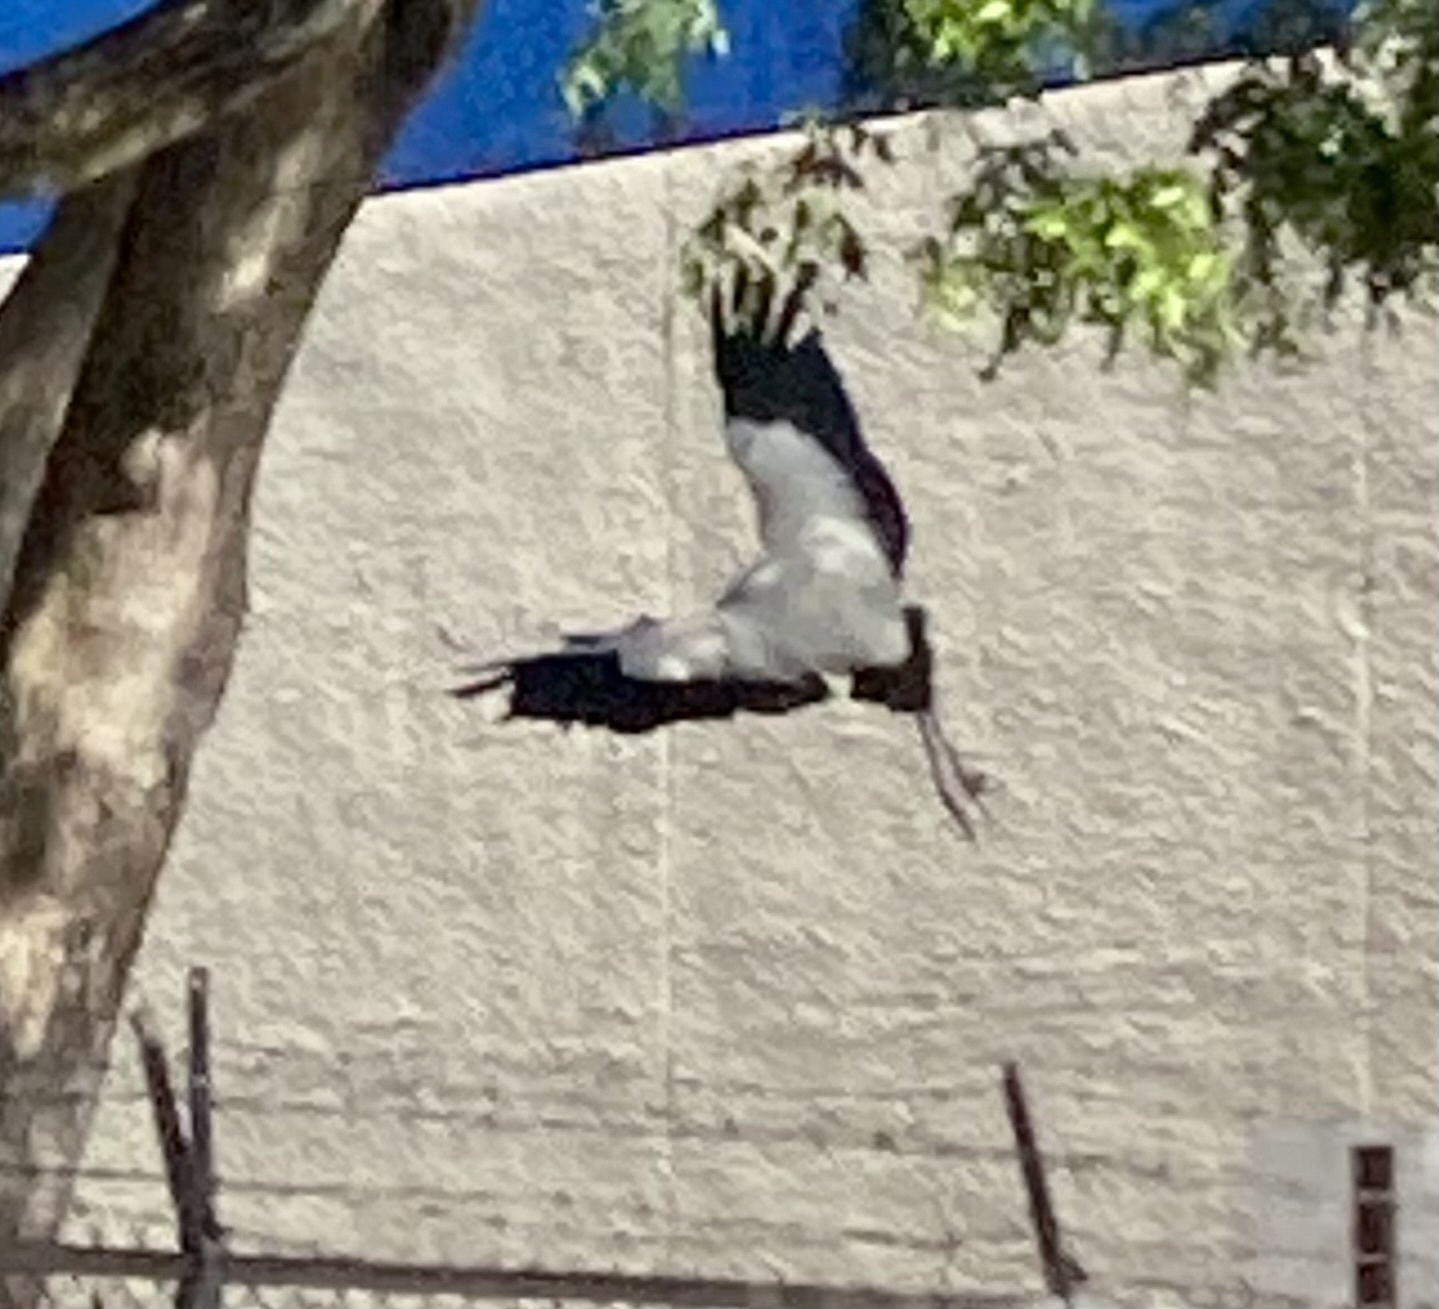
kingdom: Animalia
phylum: Chordata
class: Aves
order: Ciconiiformes
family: Ciconiidae
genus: Mycteria
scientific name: Mycteria americana
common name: Wood stork
